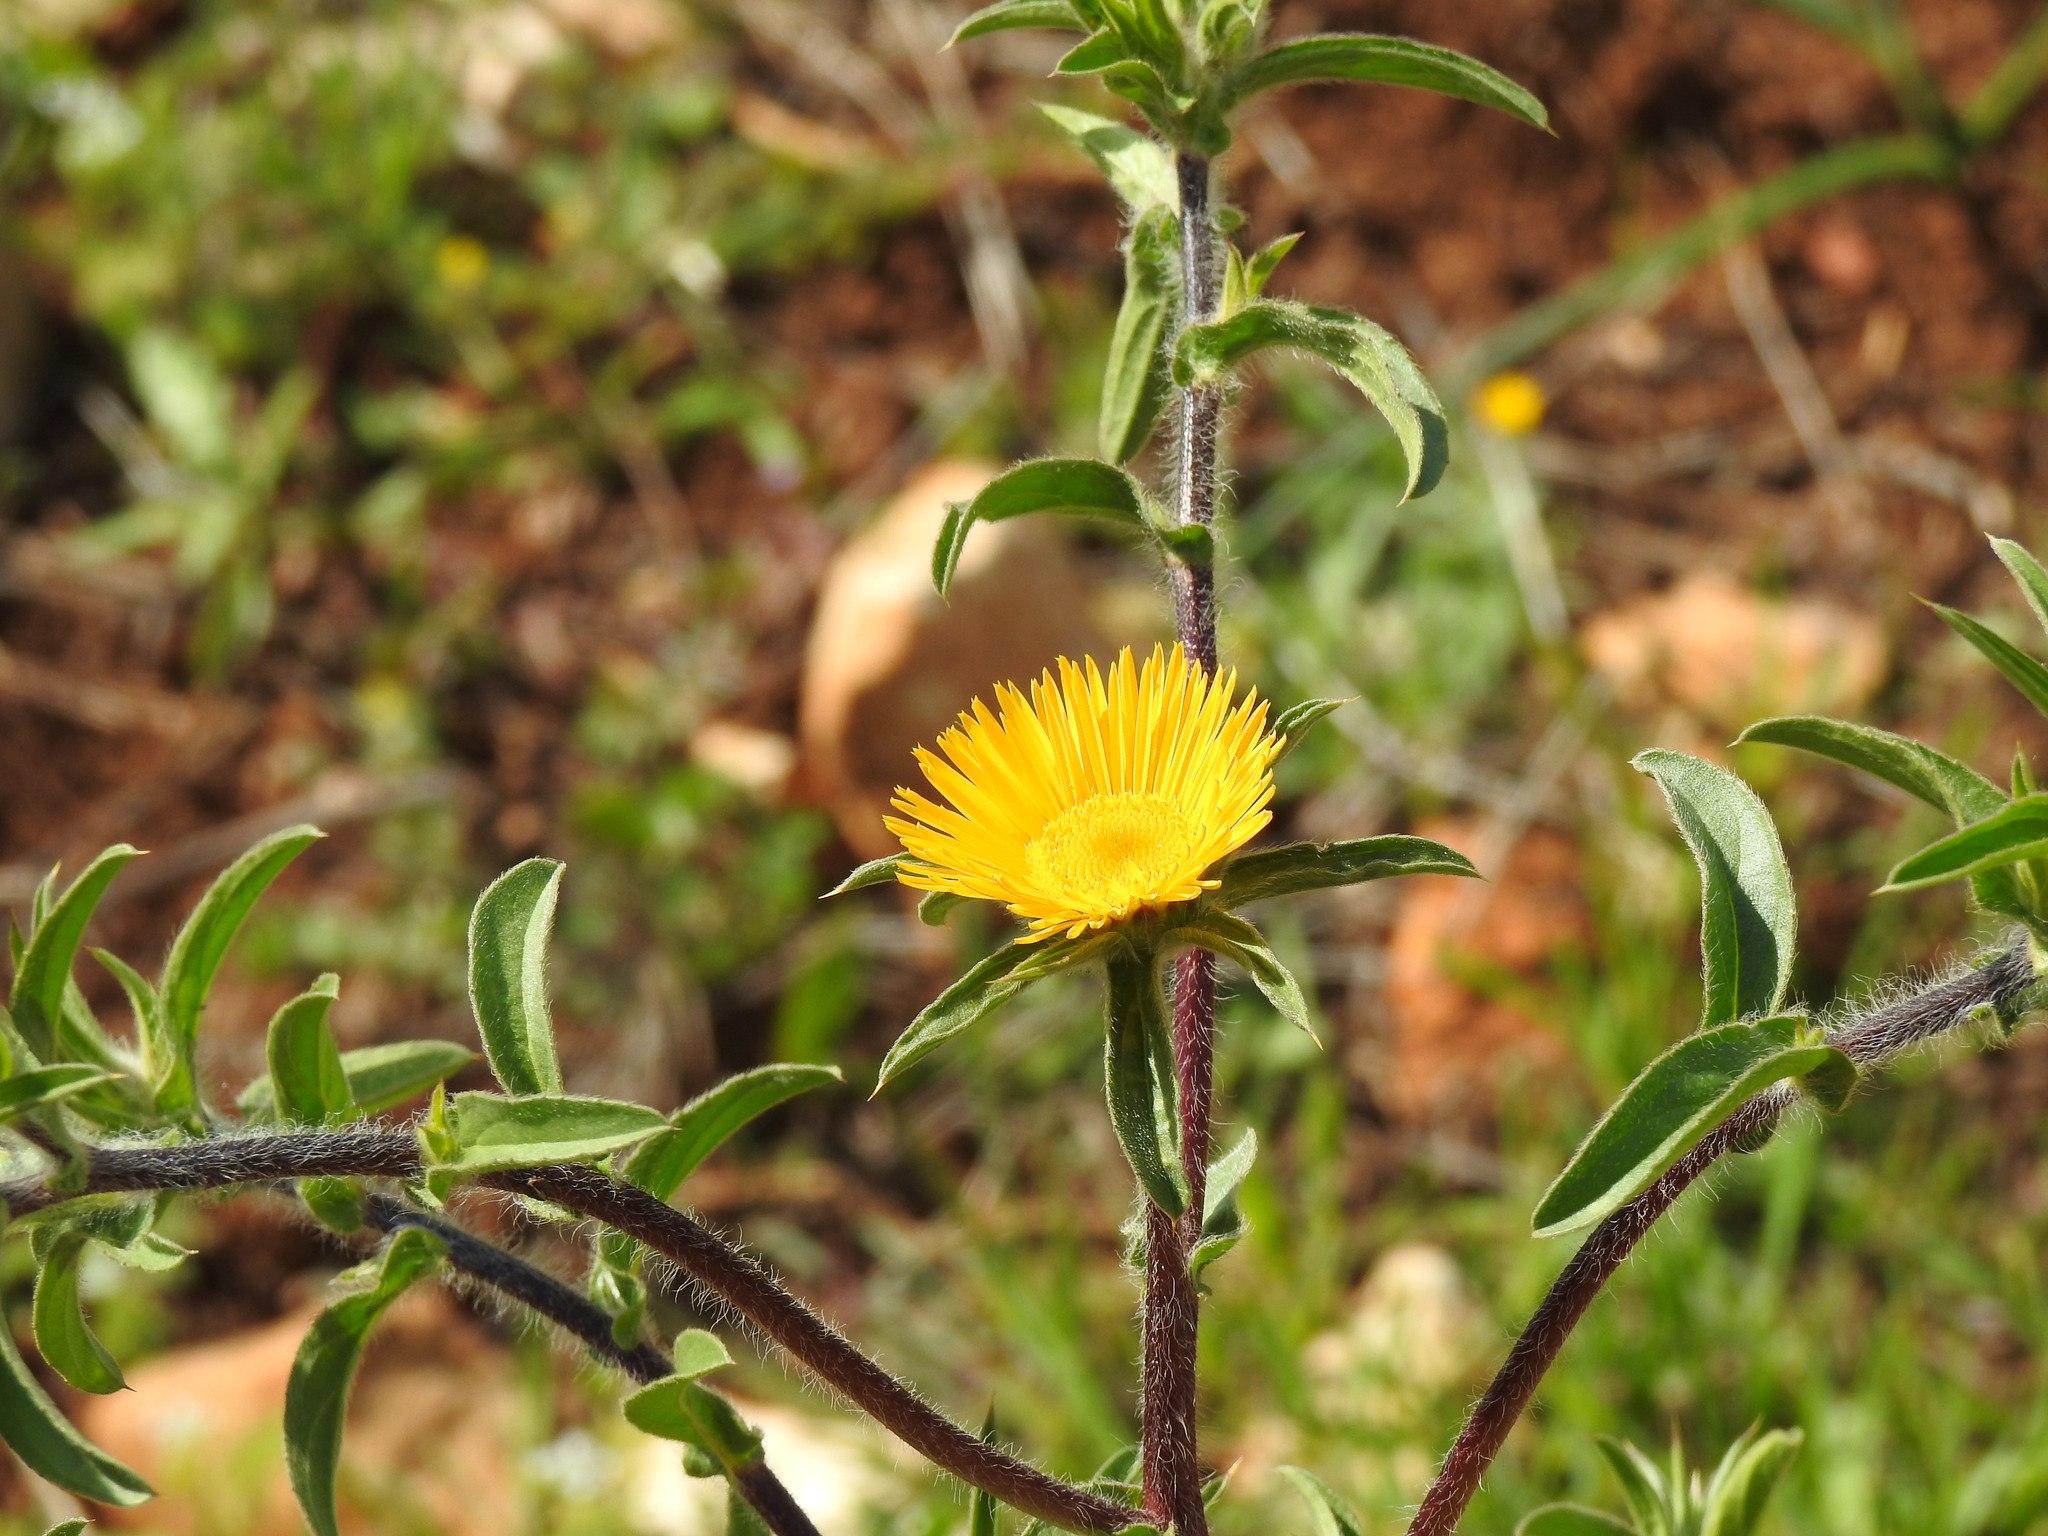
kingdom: Plantae
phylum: Tracheophyta
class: Magnoliopsida
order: Asterales
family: Asteraceae
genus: Pallenis
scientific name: Pallenis spinosa
